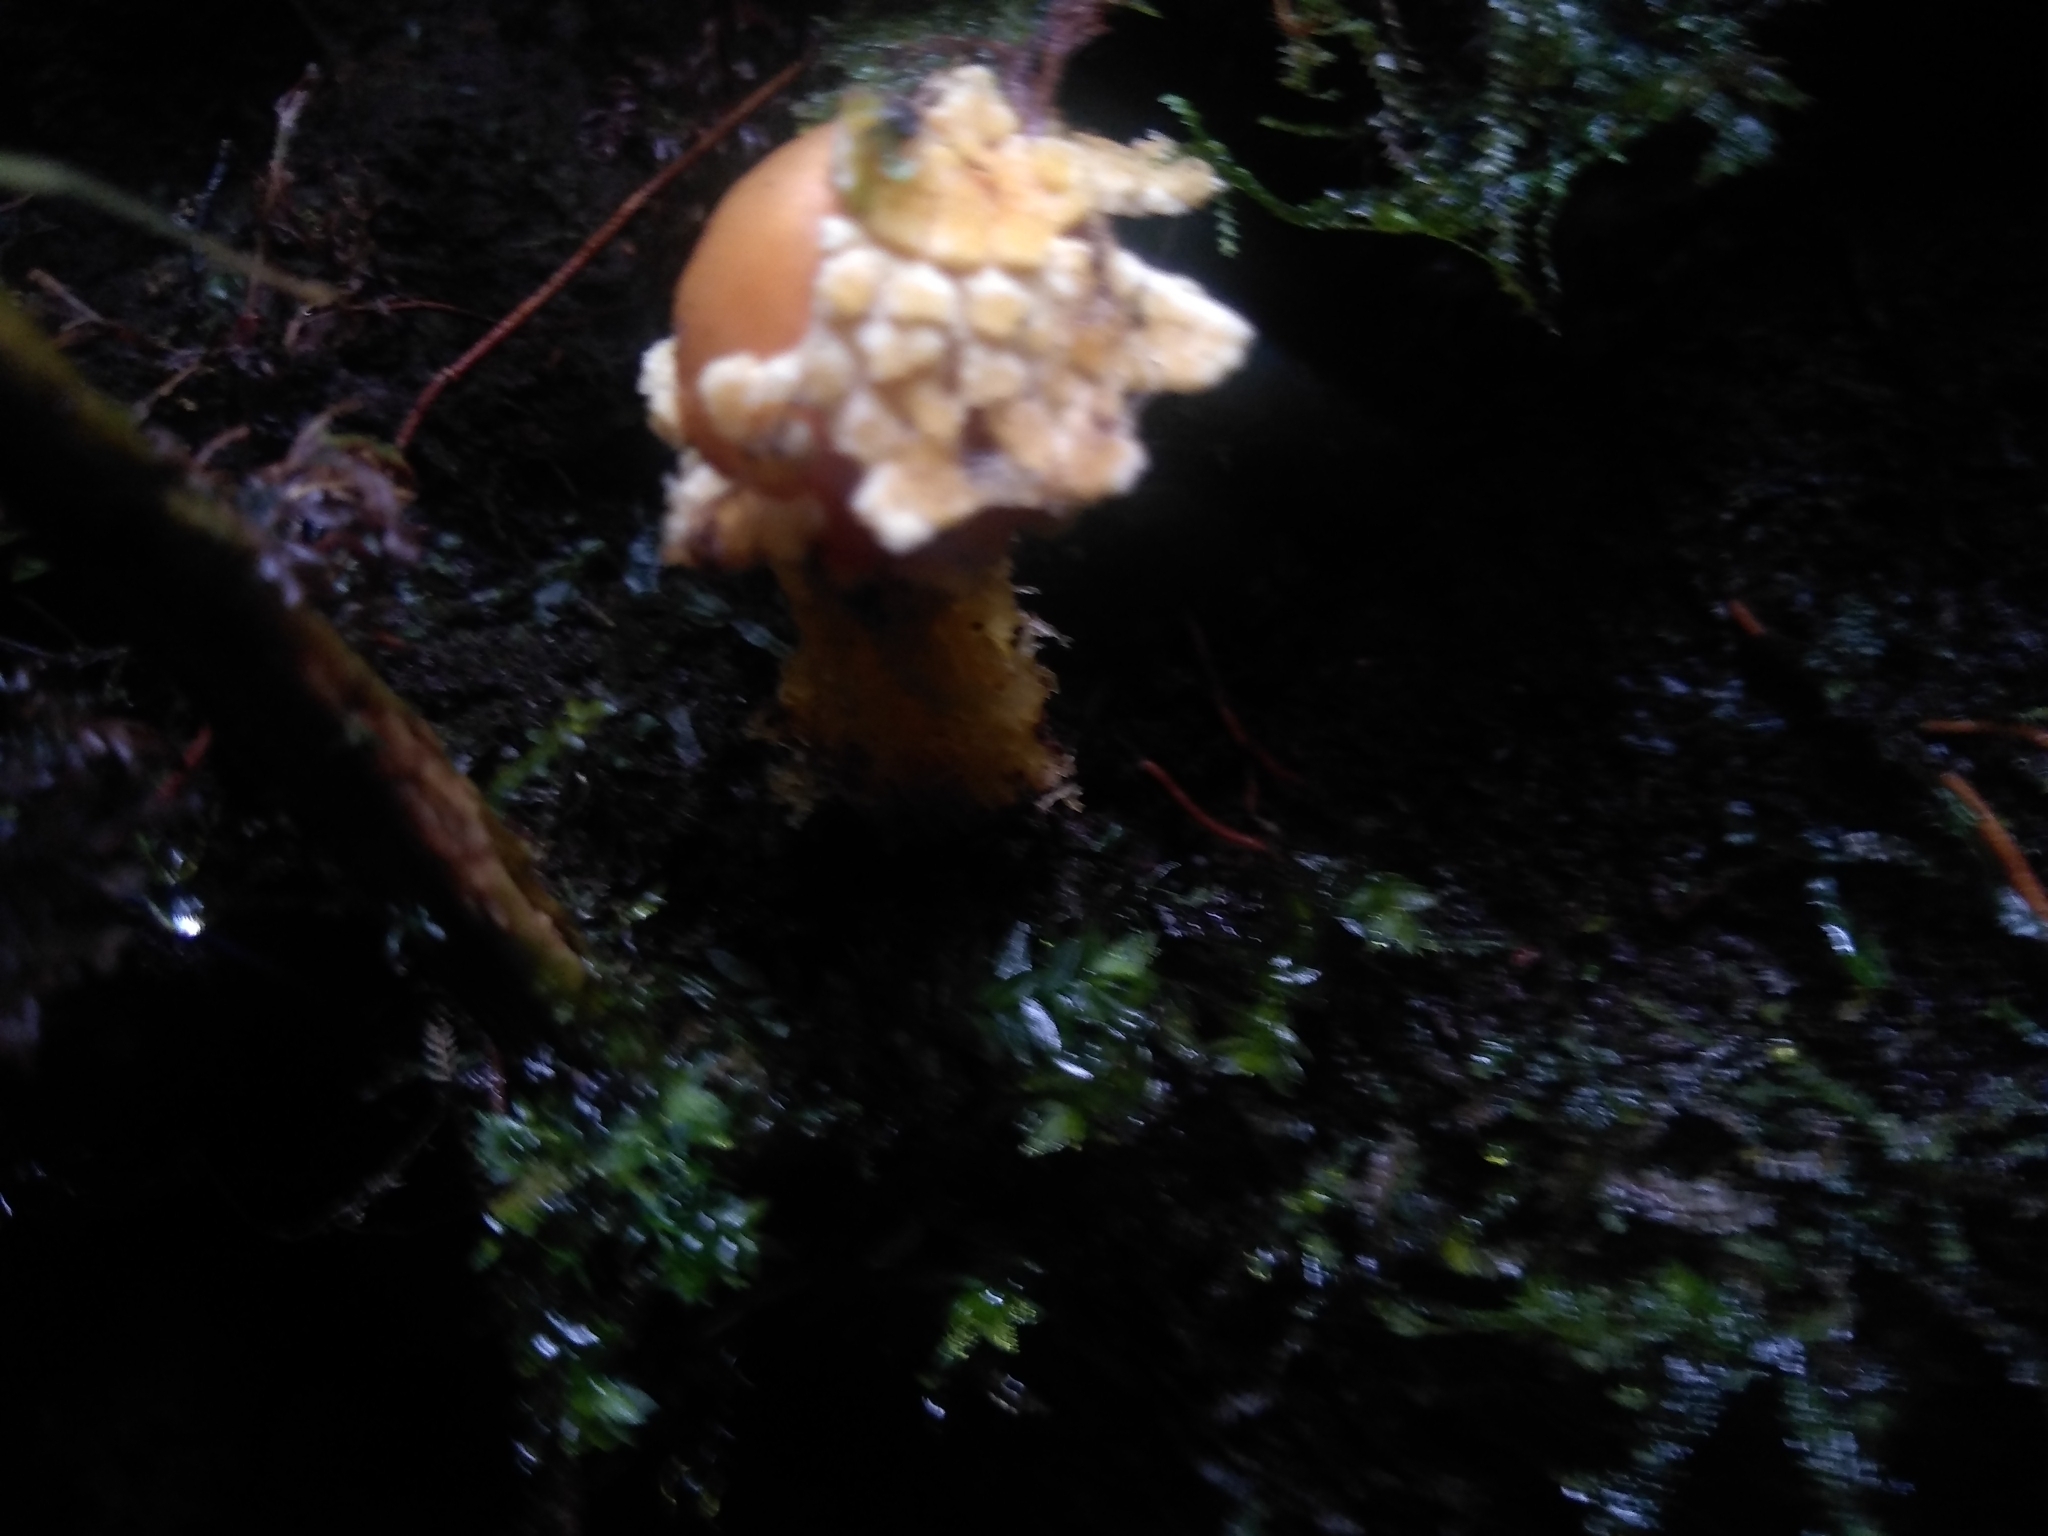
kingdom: Fungi
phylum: Basidiomycota
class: Agaricomycetes
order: Boletales
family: Calostomataceae
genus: Calostoma
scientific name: Calostoma lutescens
